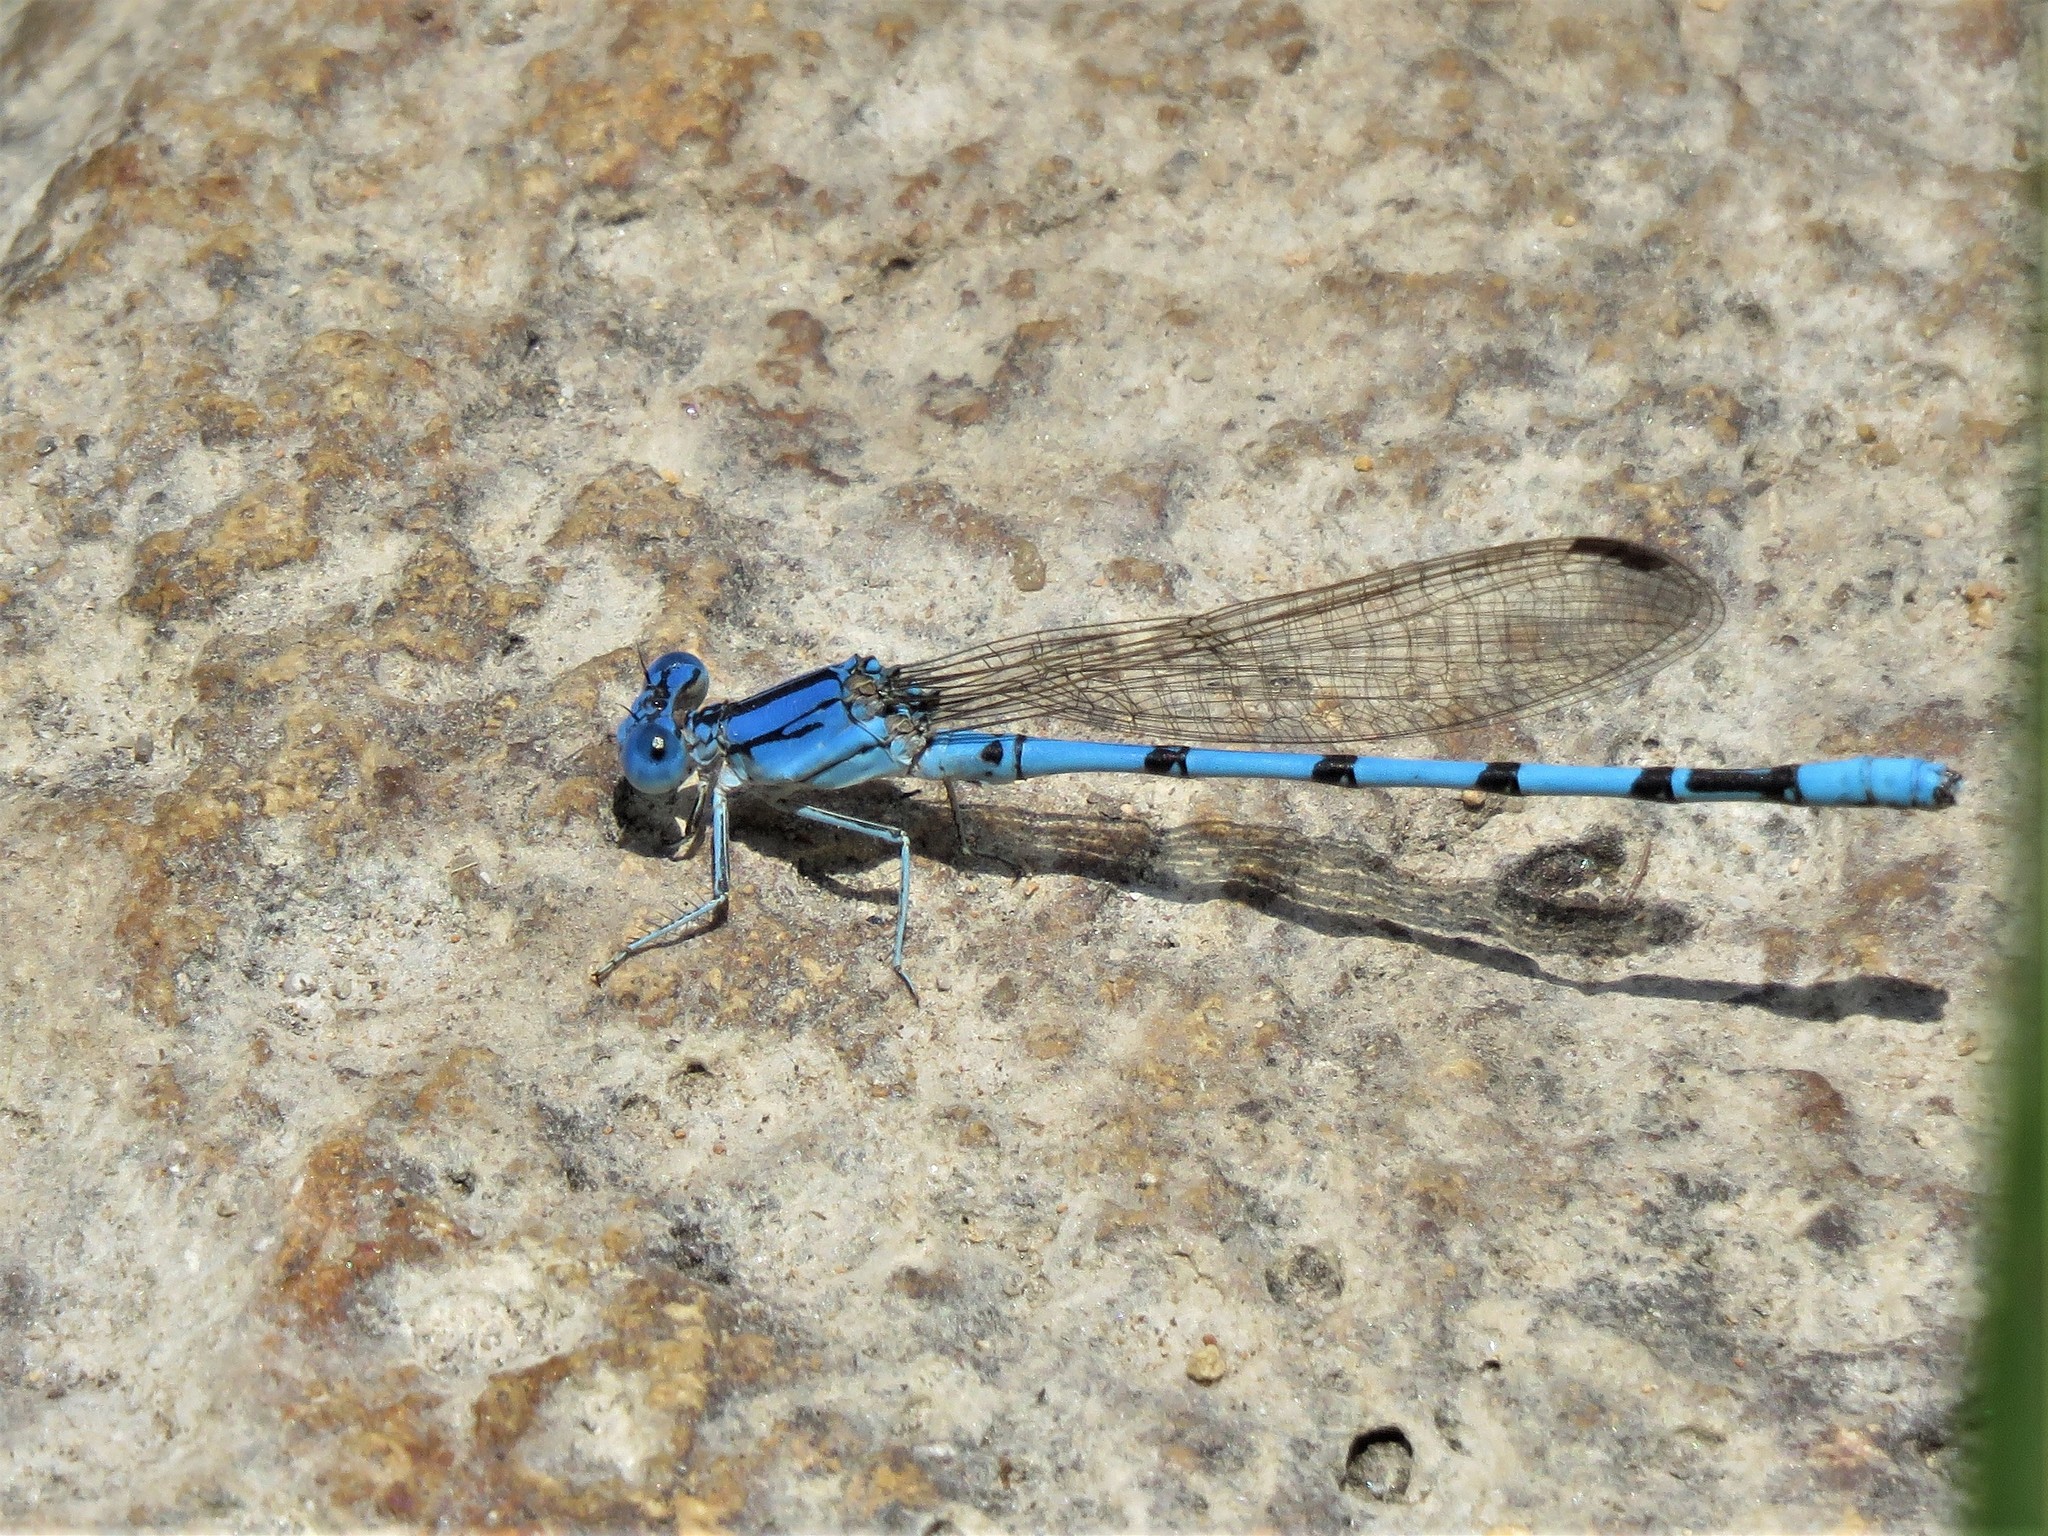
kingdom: Animalia
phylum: Arthropoda
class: Insecta
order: Odonata
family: Coenagrionidae
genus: Argia
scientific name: Argia nahuana
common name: Aztec dancer
